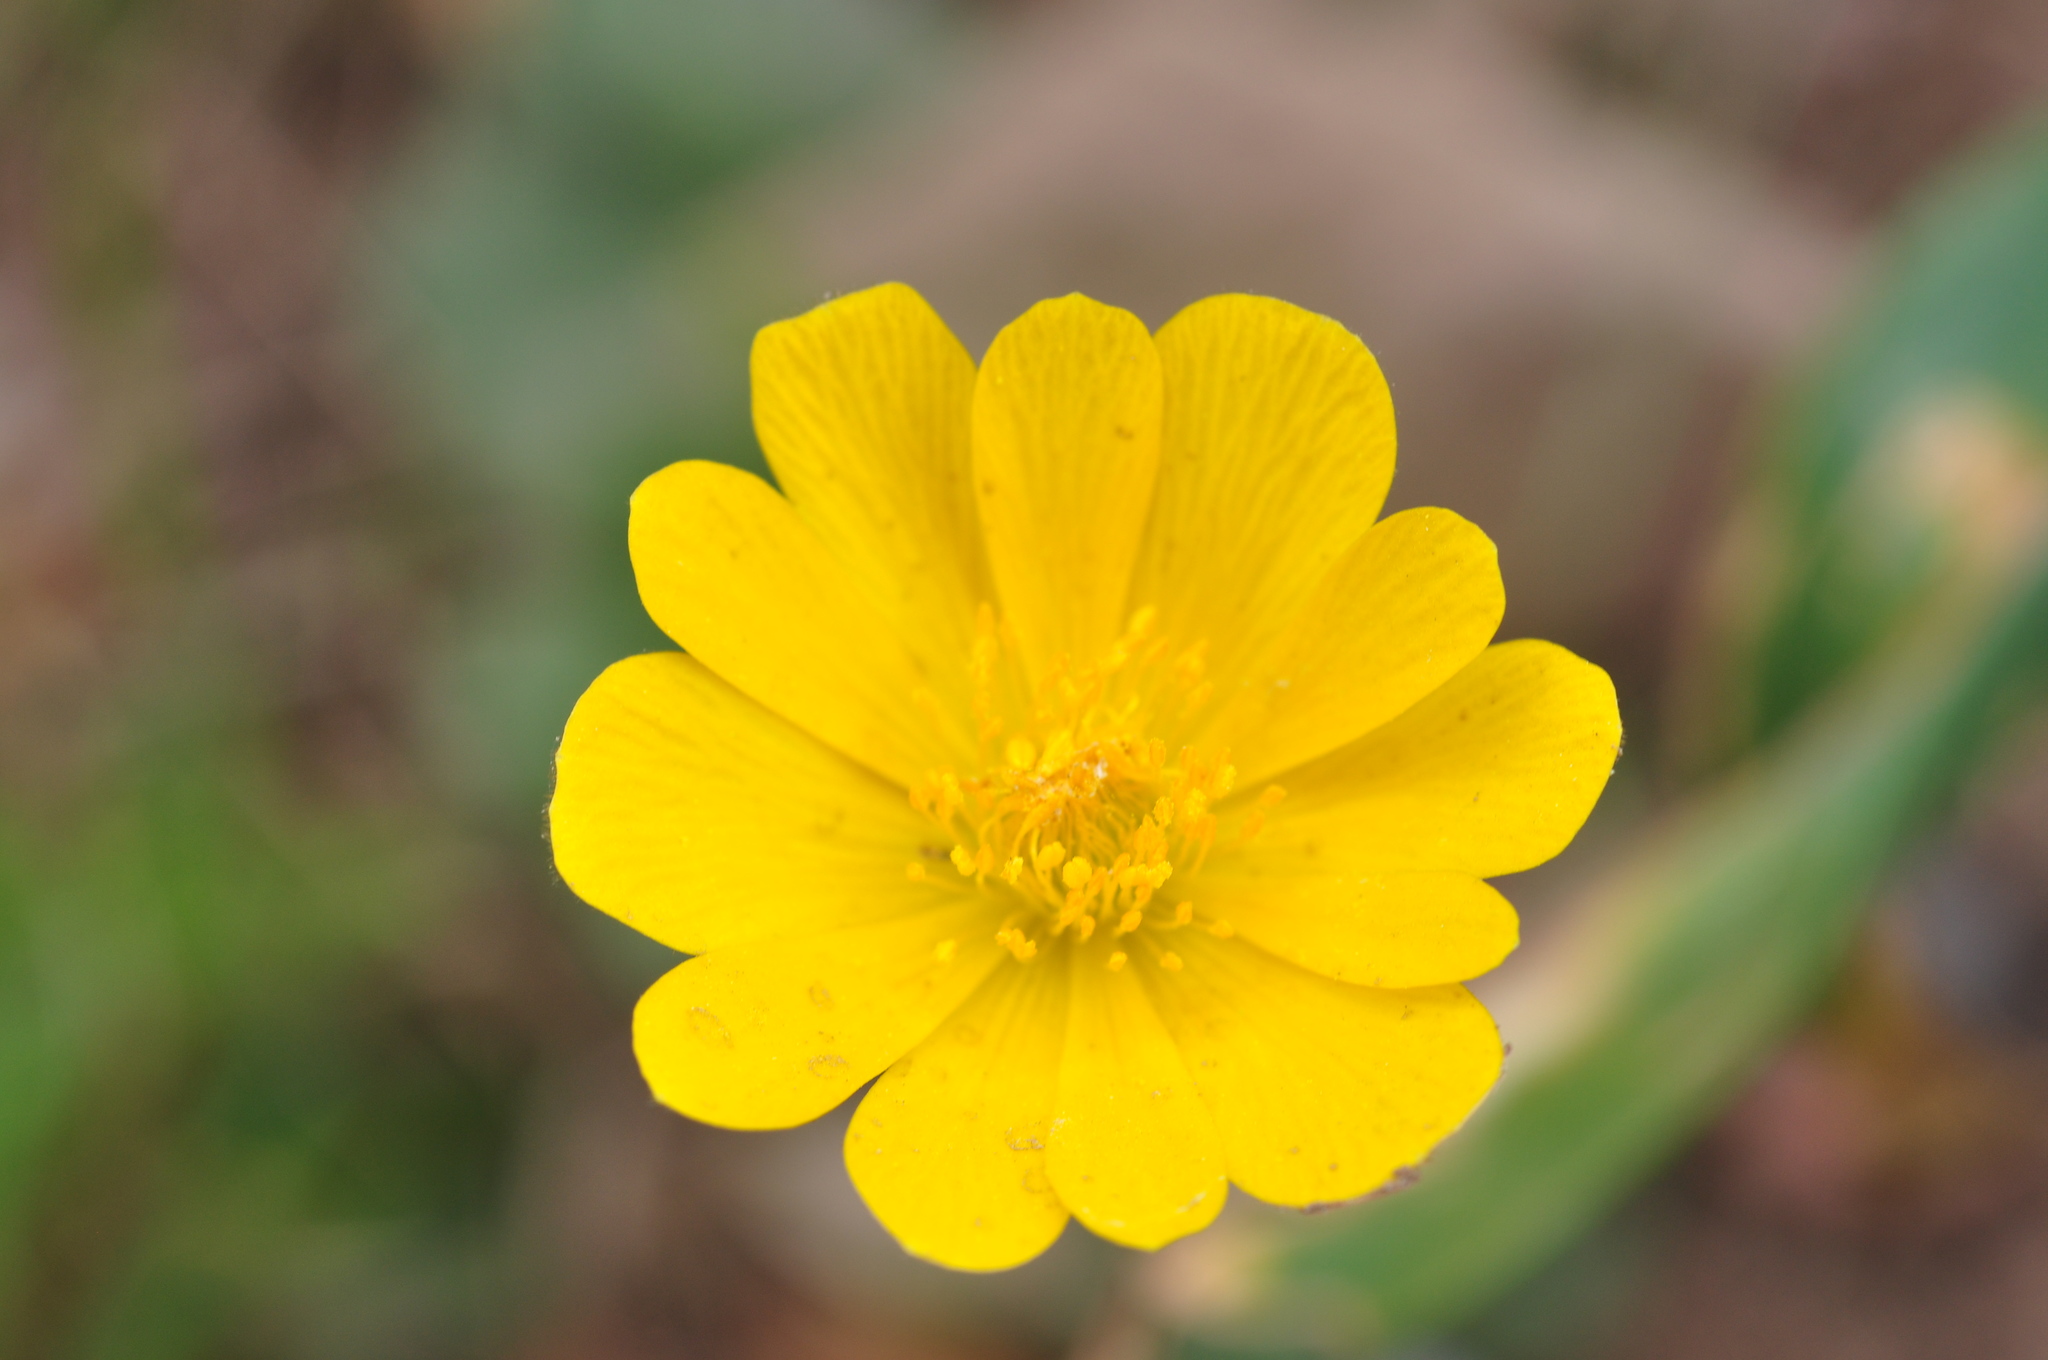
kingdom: Plantae
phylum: Tracheophyta
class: Magnoliopsida
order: Ranunculales
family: Ranunculaceae
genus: Anemone
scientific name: Anemone palmata
